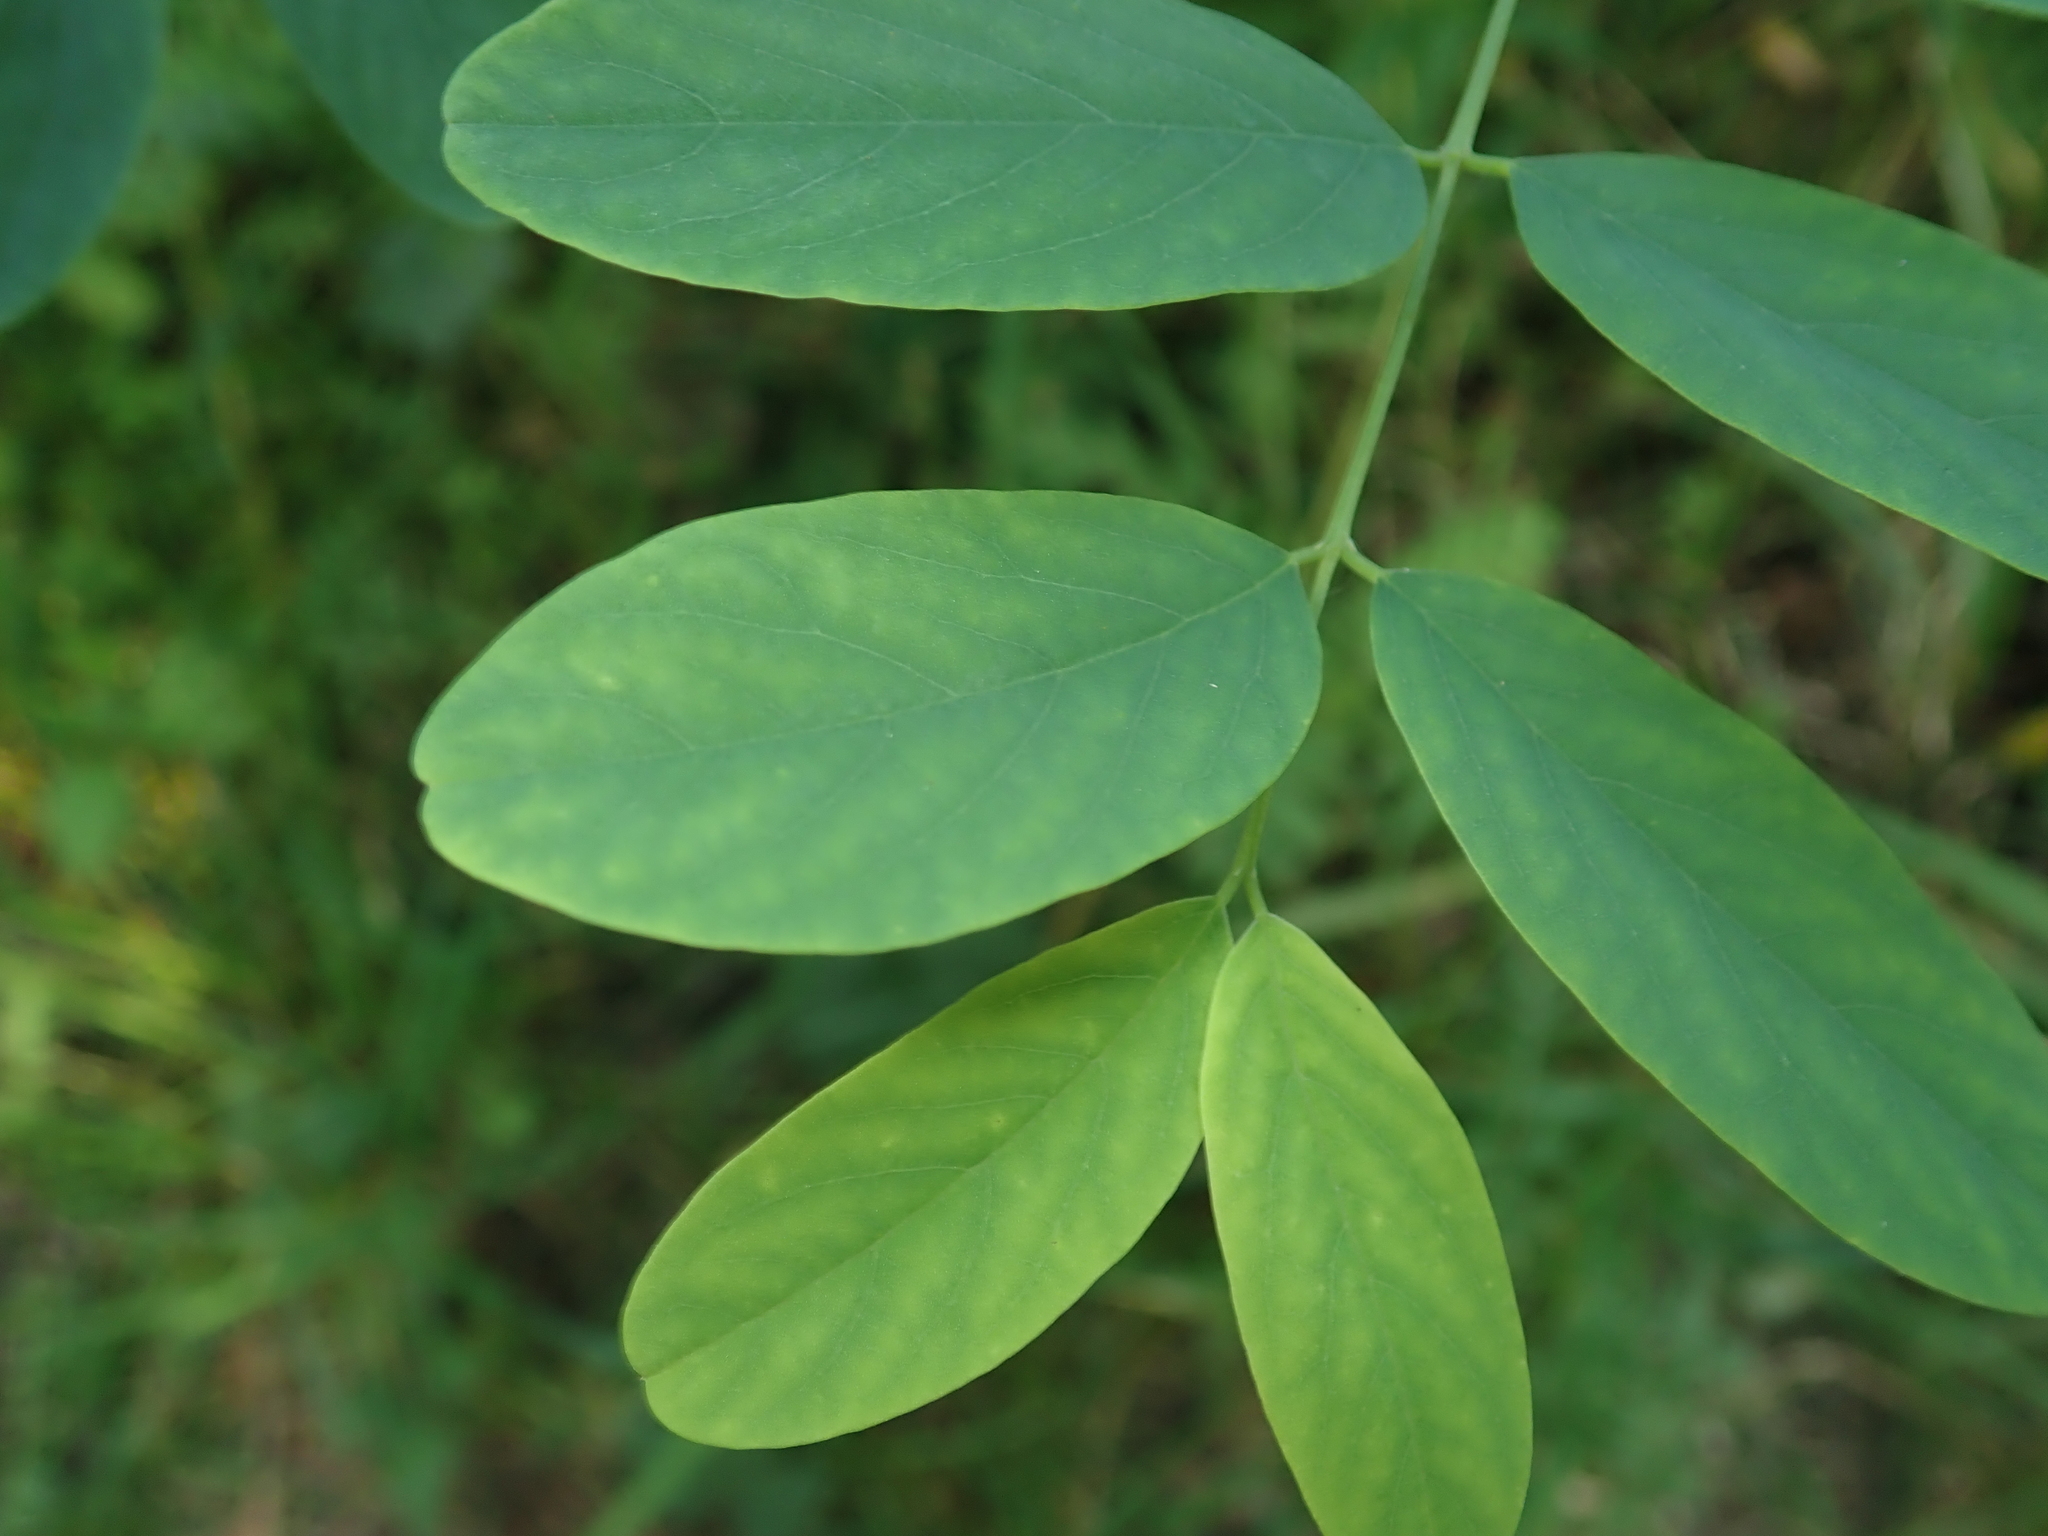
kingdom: Plantae
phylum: Tracheophyta
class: Magnoliopsida
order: Fabales
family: Fabaceae
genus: Robinia
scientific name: Robinia pseudoacacia
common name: Black locust
